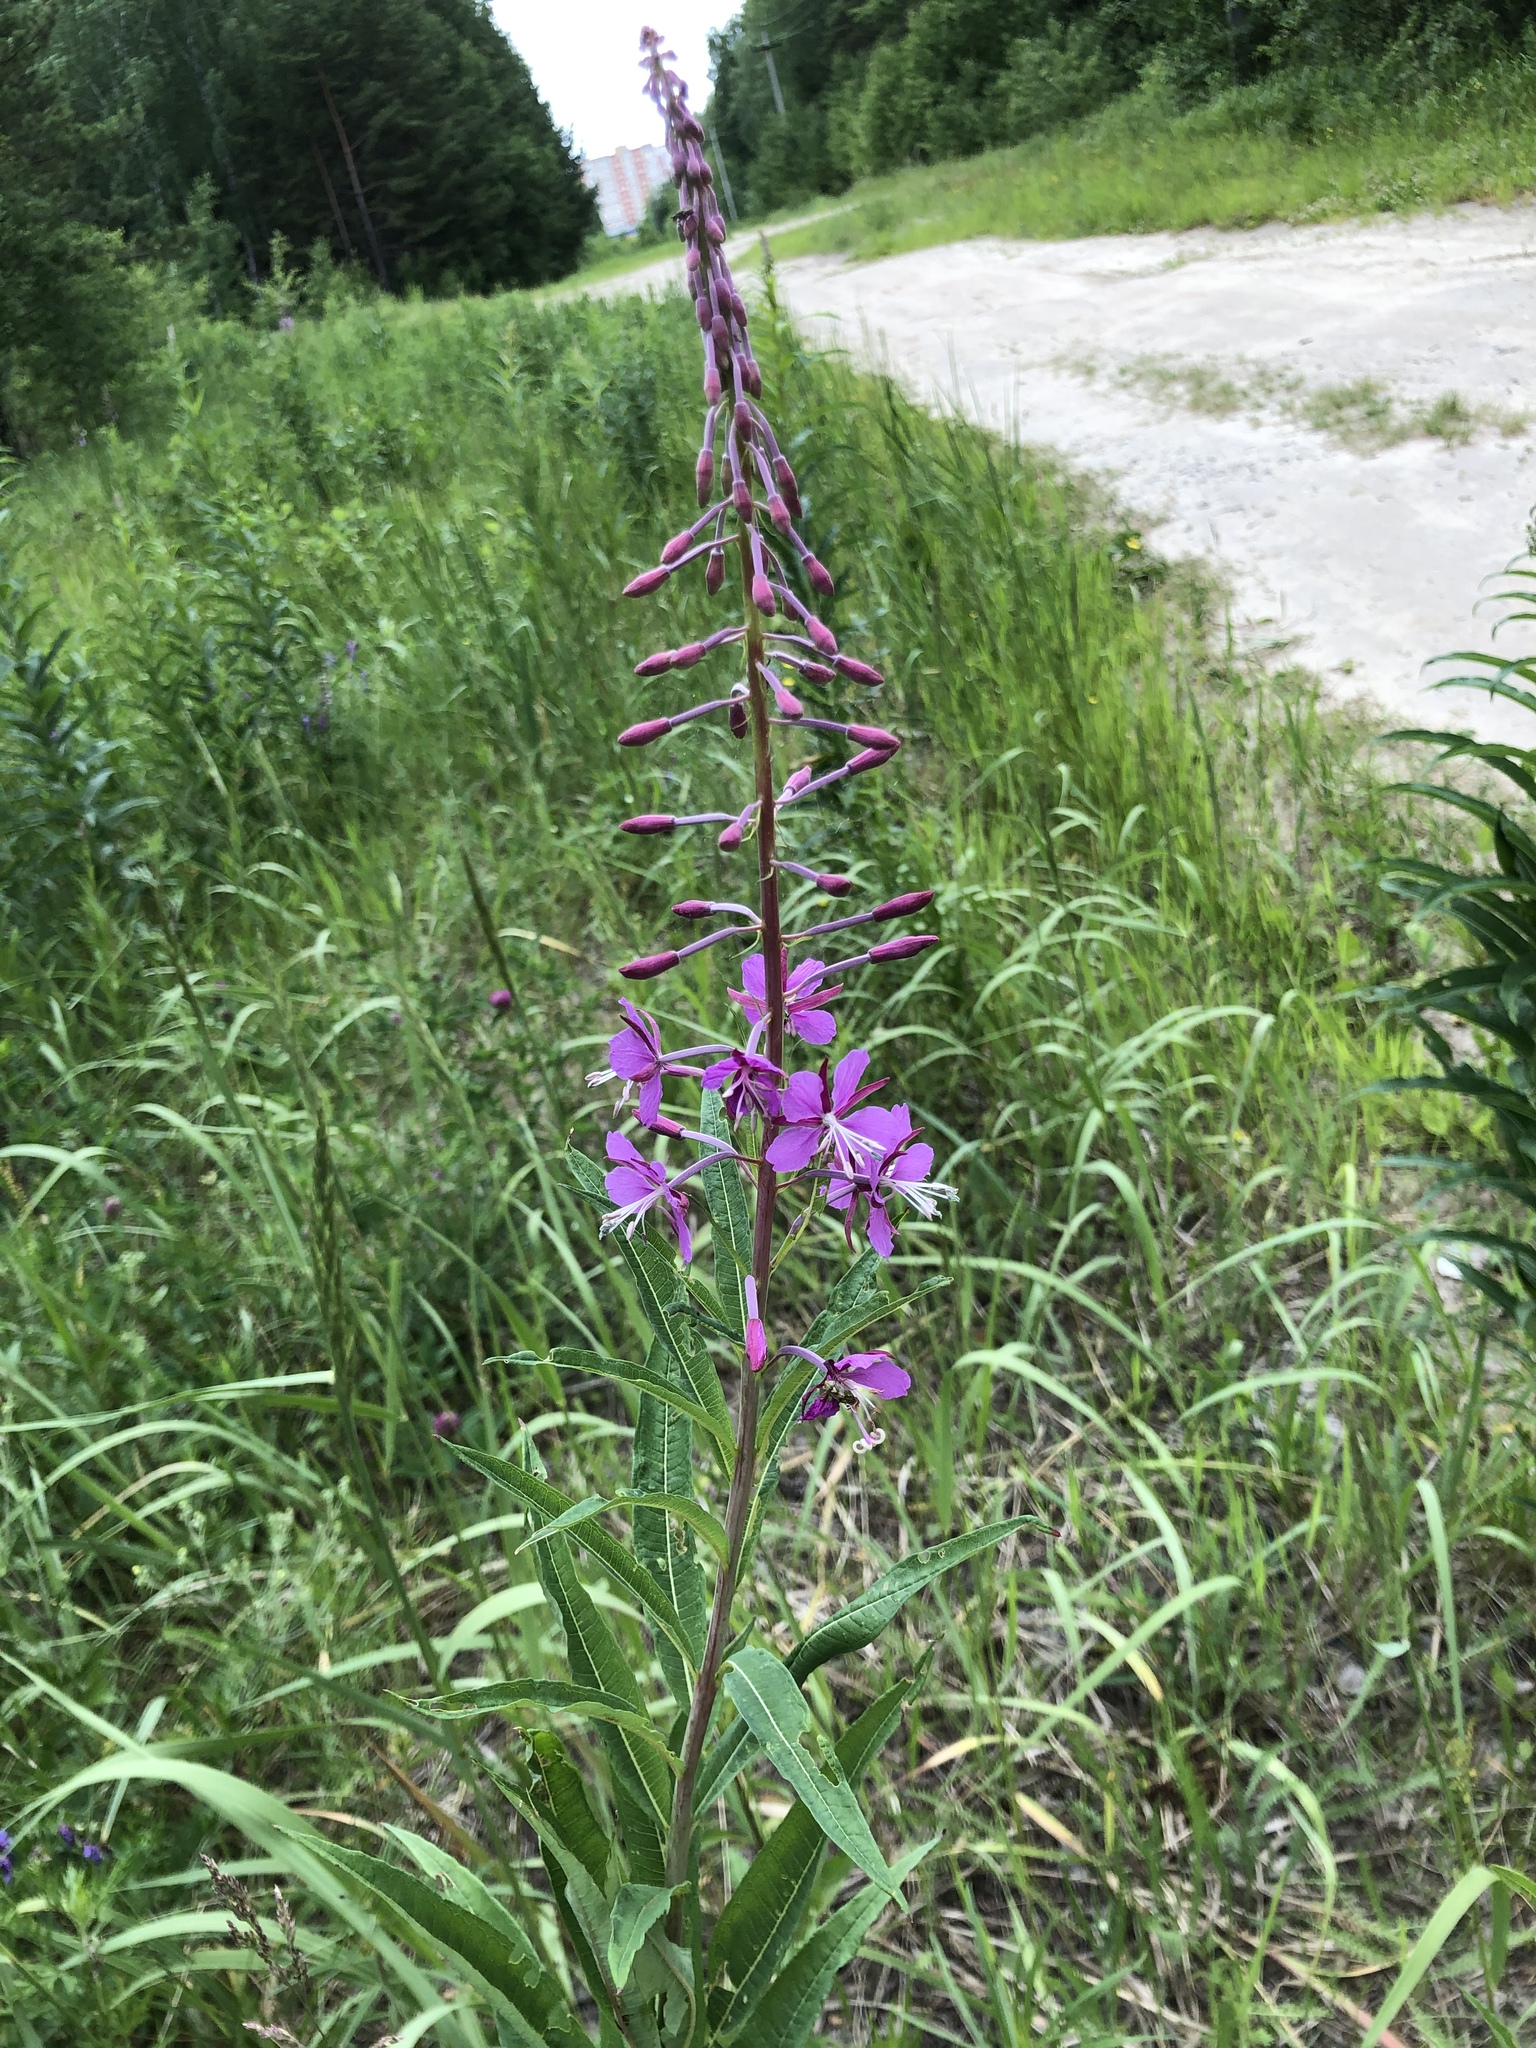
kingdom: Plantae
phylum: Tracheophyta
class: Magnoliopsida
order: Myrtales
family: Onagraceae
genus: Chamaenerion
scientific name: Chamaenerion angustifolium
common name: Fireweed
